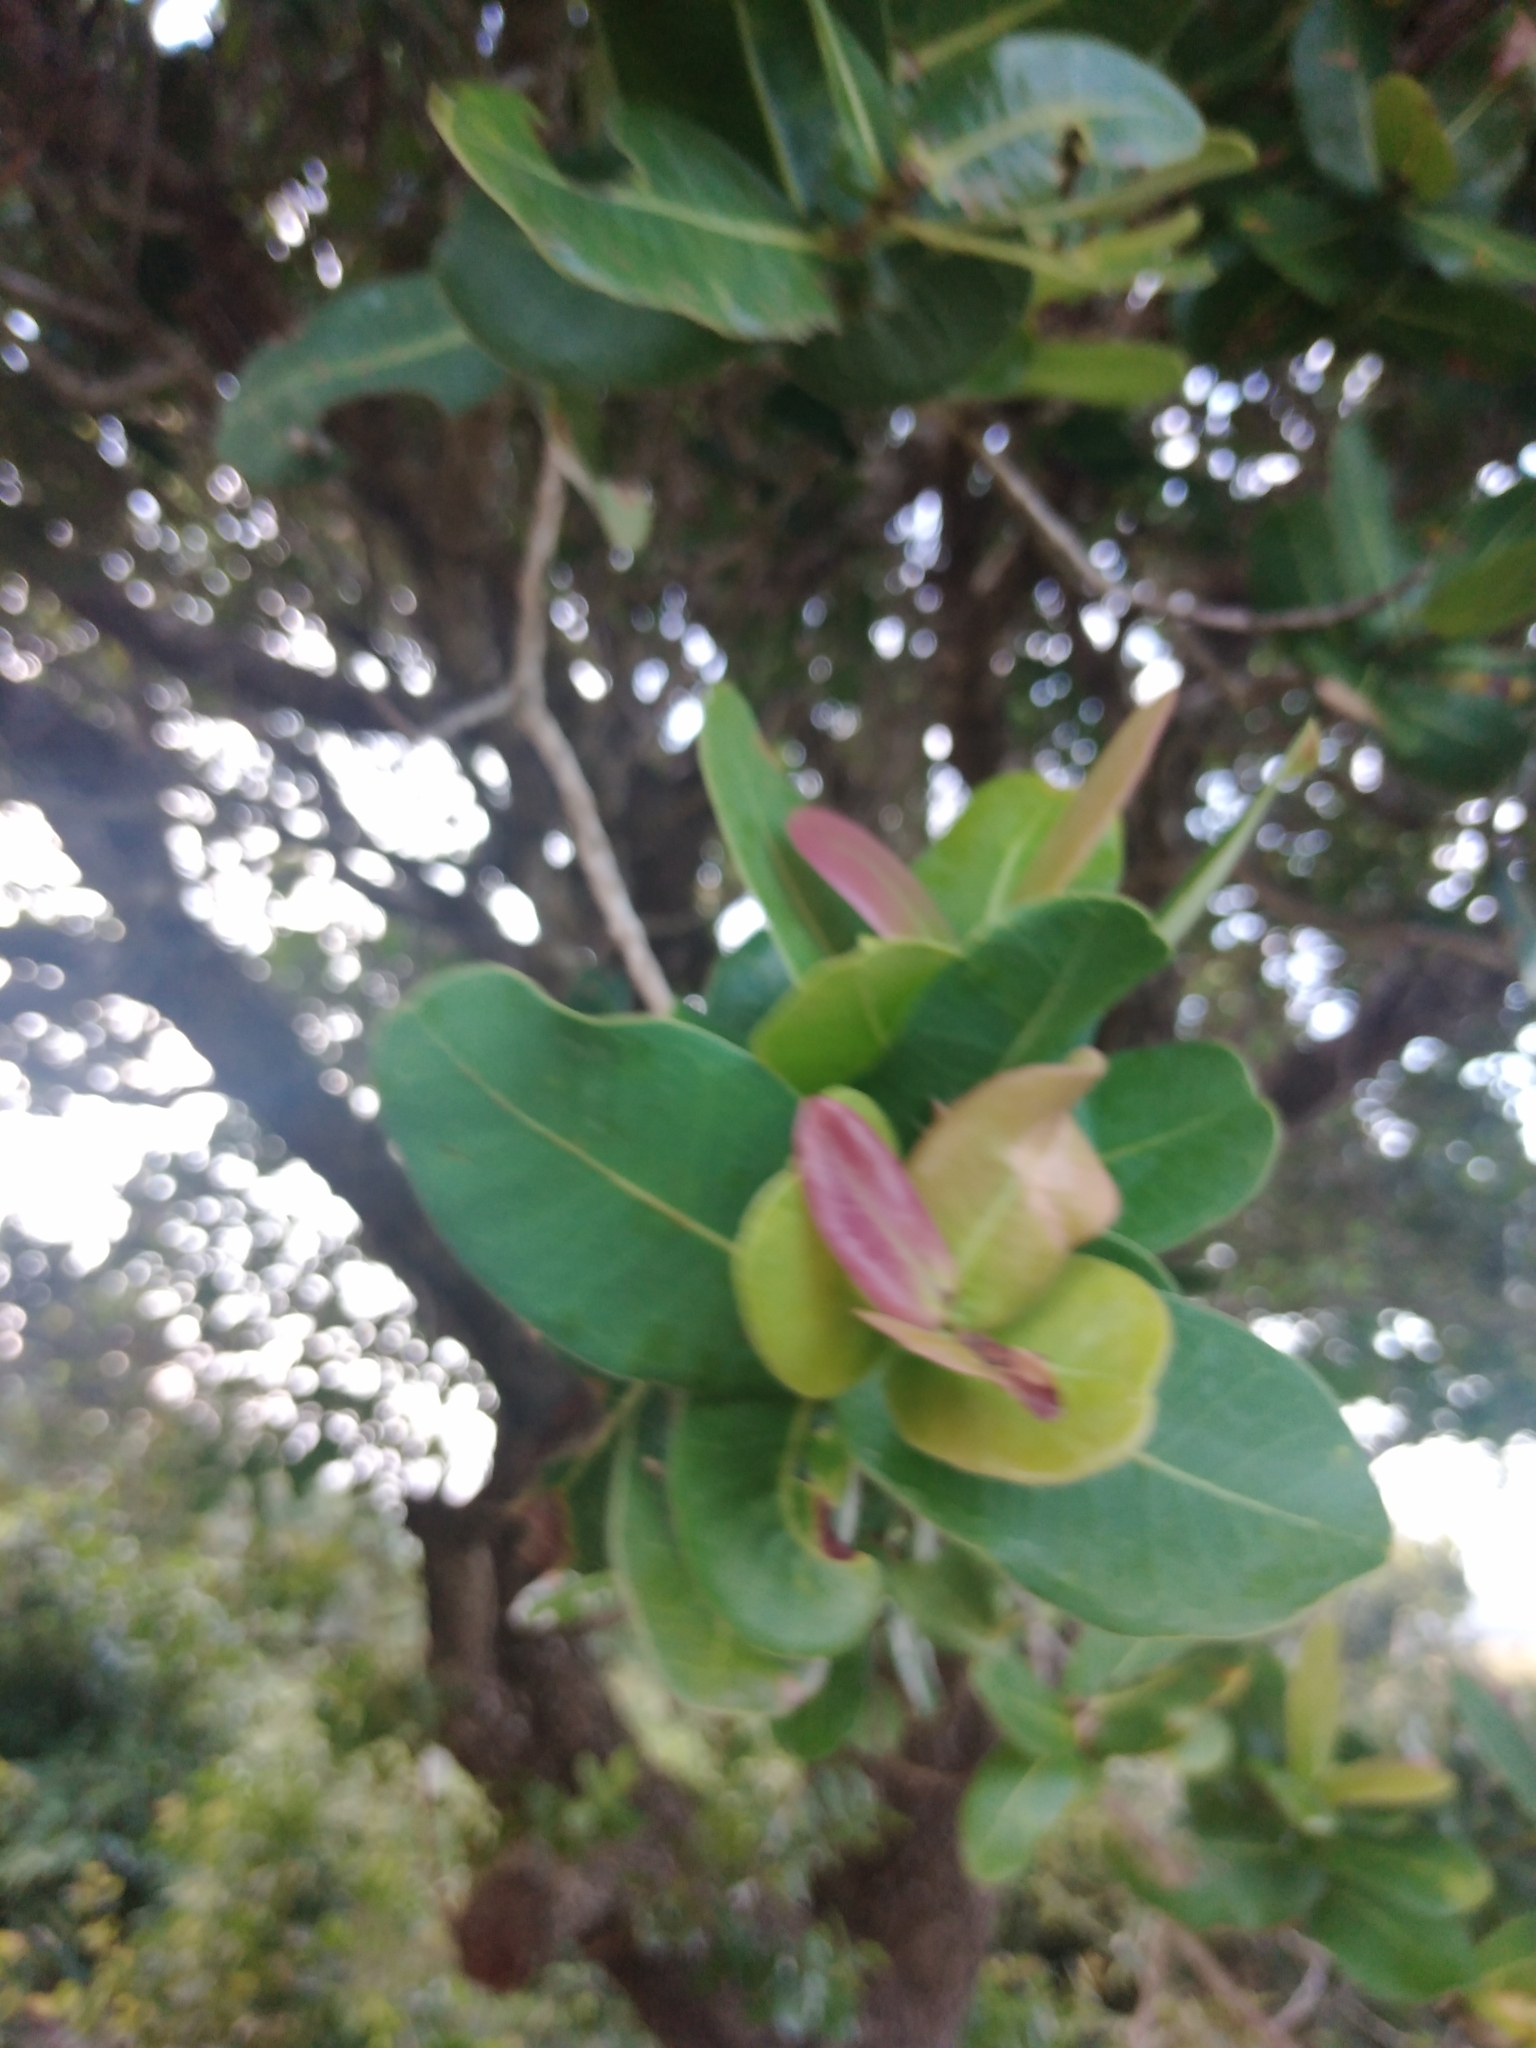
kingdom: Plantae
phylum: Tracheophyta
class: Magnoliopsida
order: Myrtales
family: Myrtaceae
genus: Syzygium
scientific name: Syzygium cordatum
